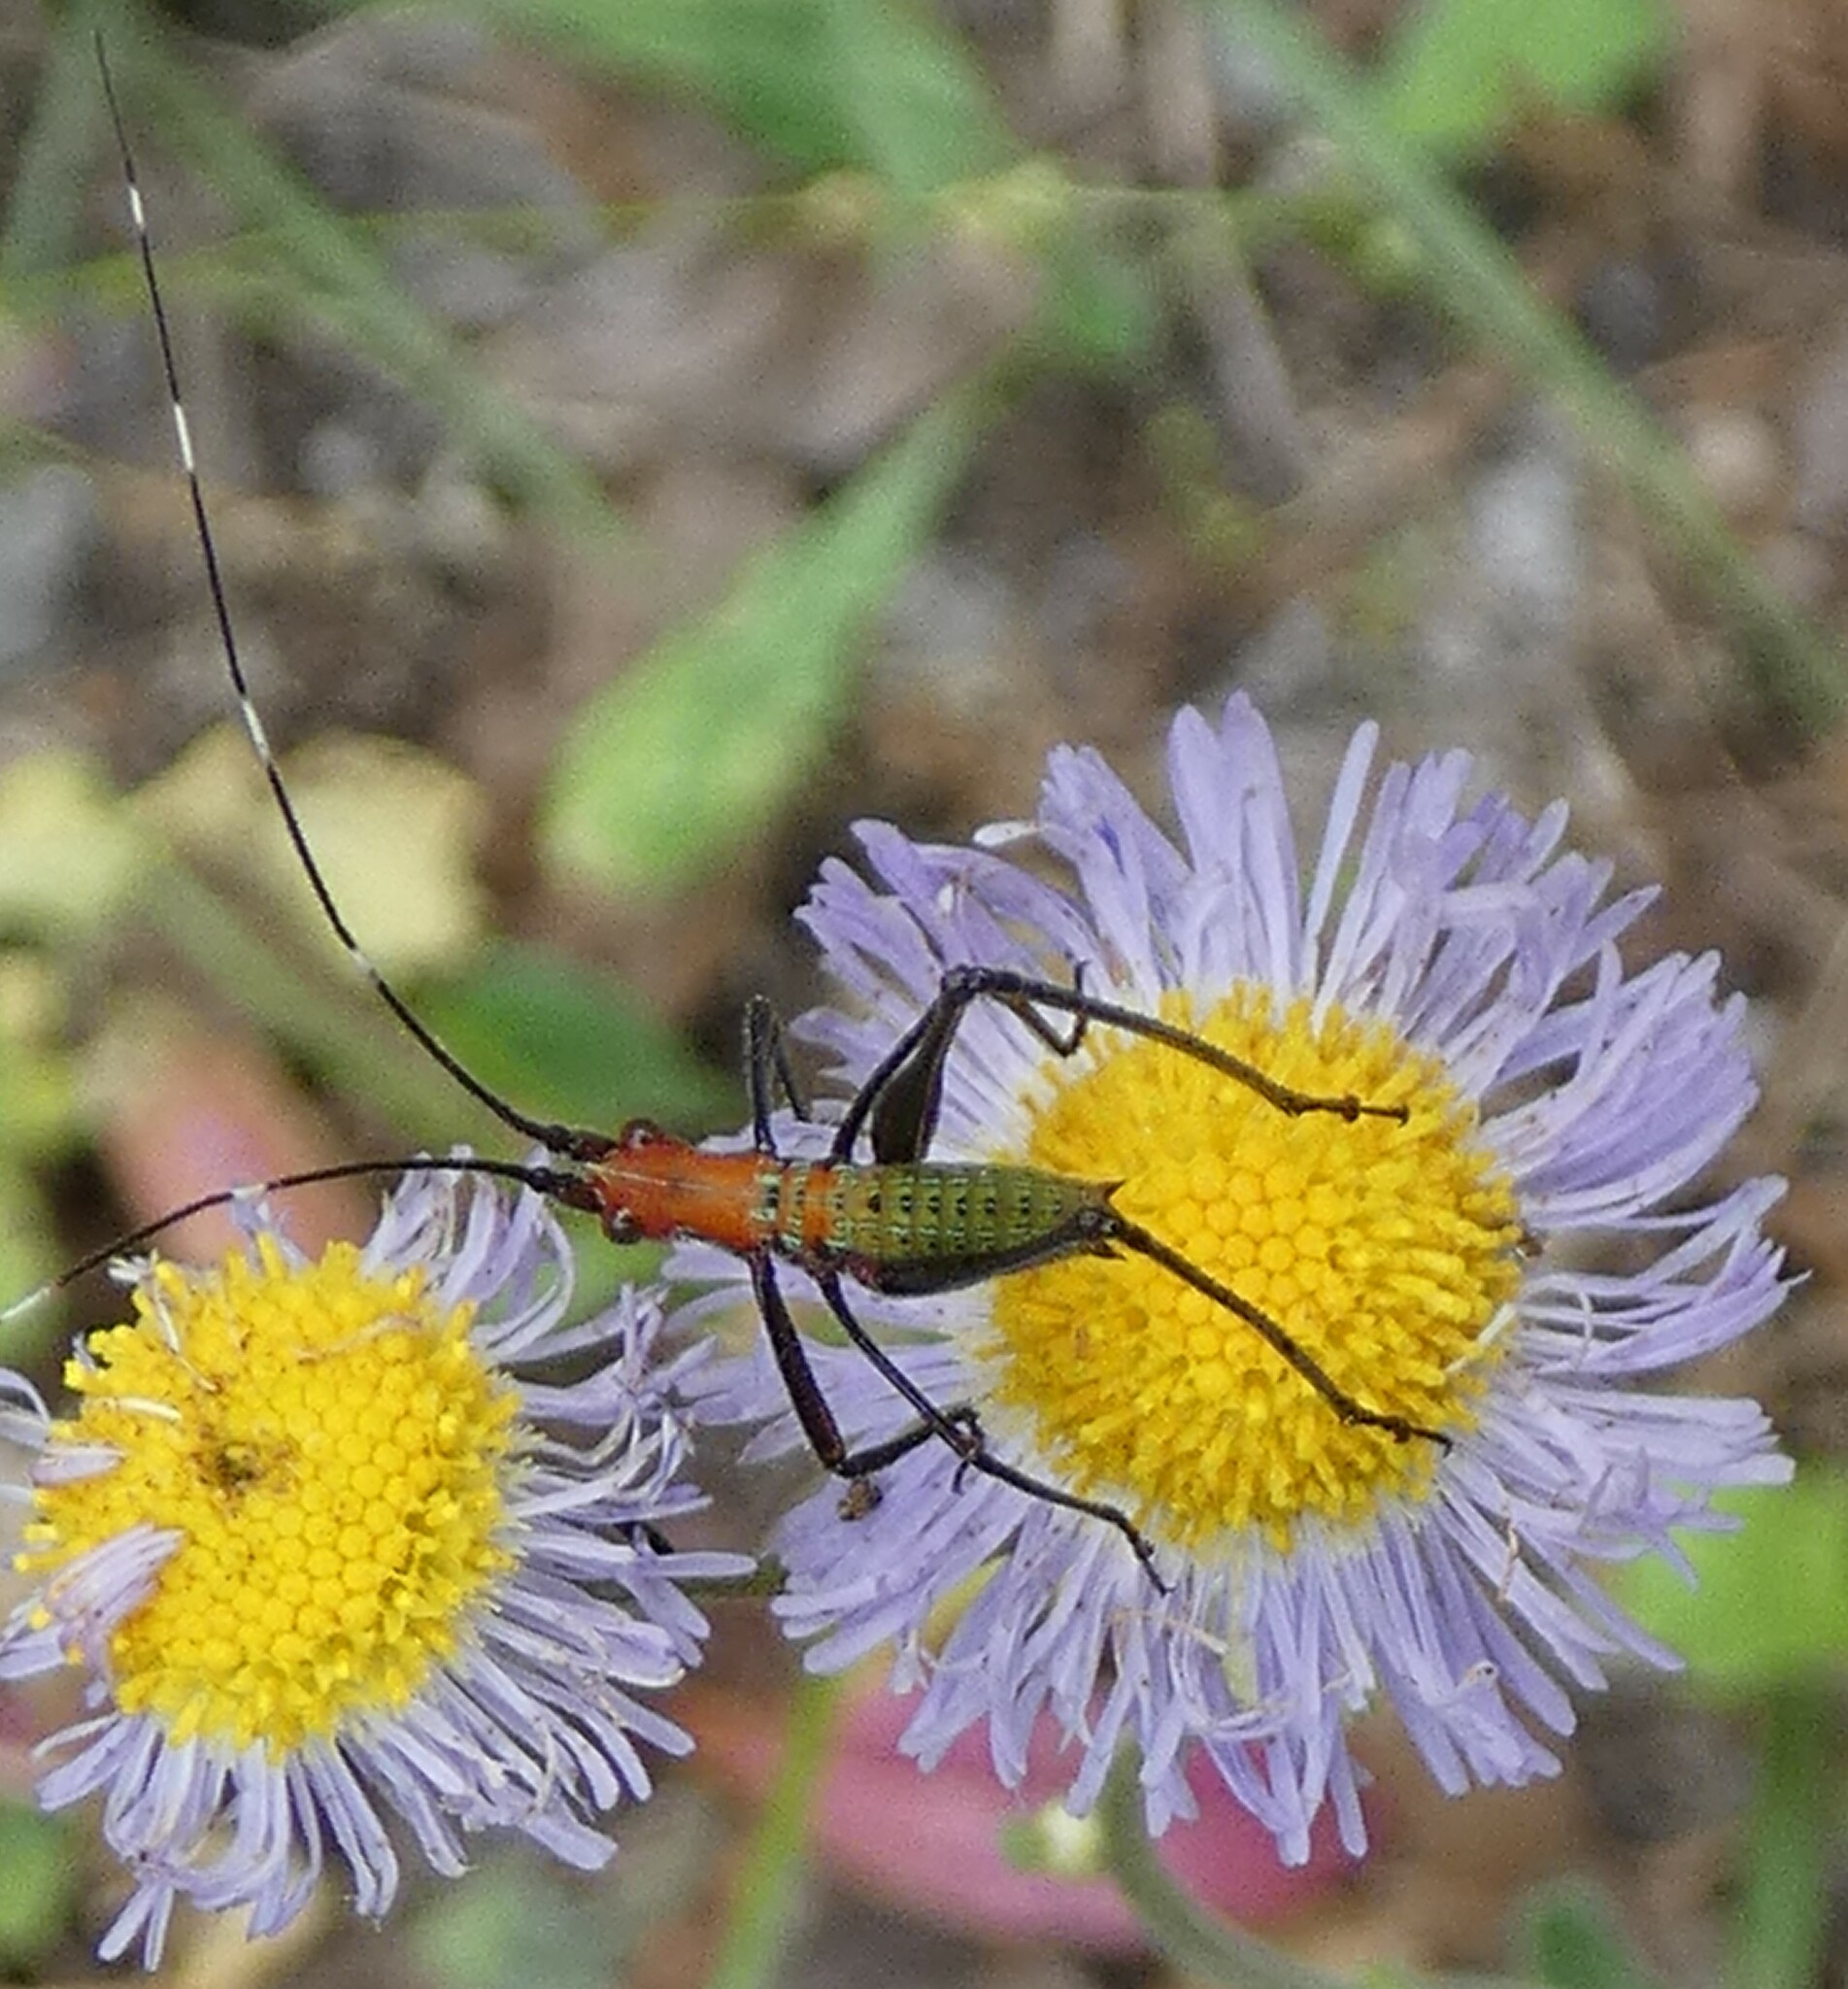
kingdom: Animalia
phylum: Arthropoda
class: Insecta
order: Orthoptera
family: Tettigoniidae
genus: Scudderia
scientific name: Scudderia cuneata
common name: Southeastern bush katydid
